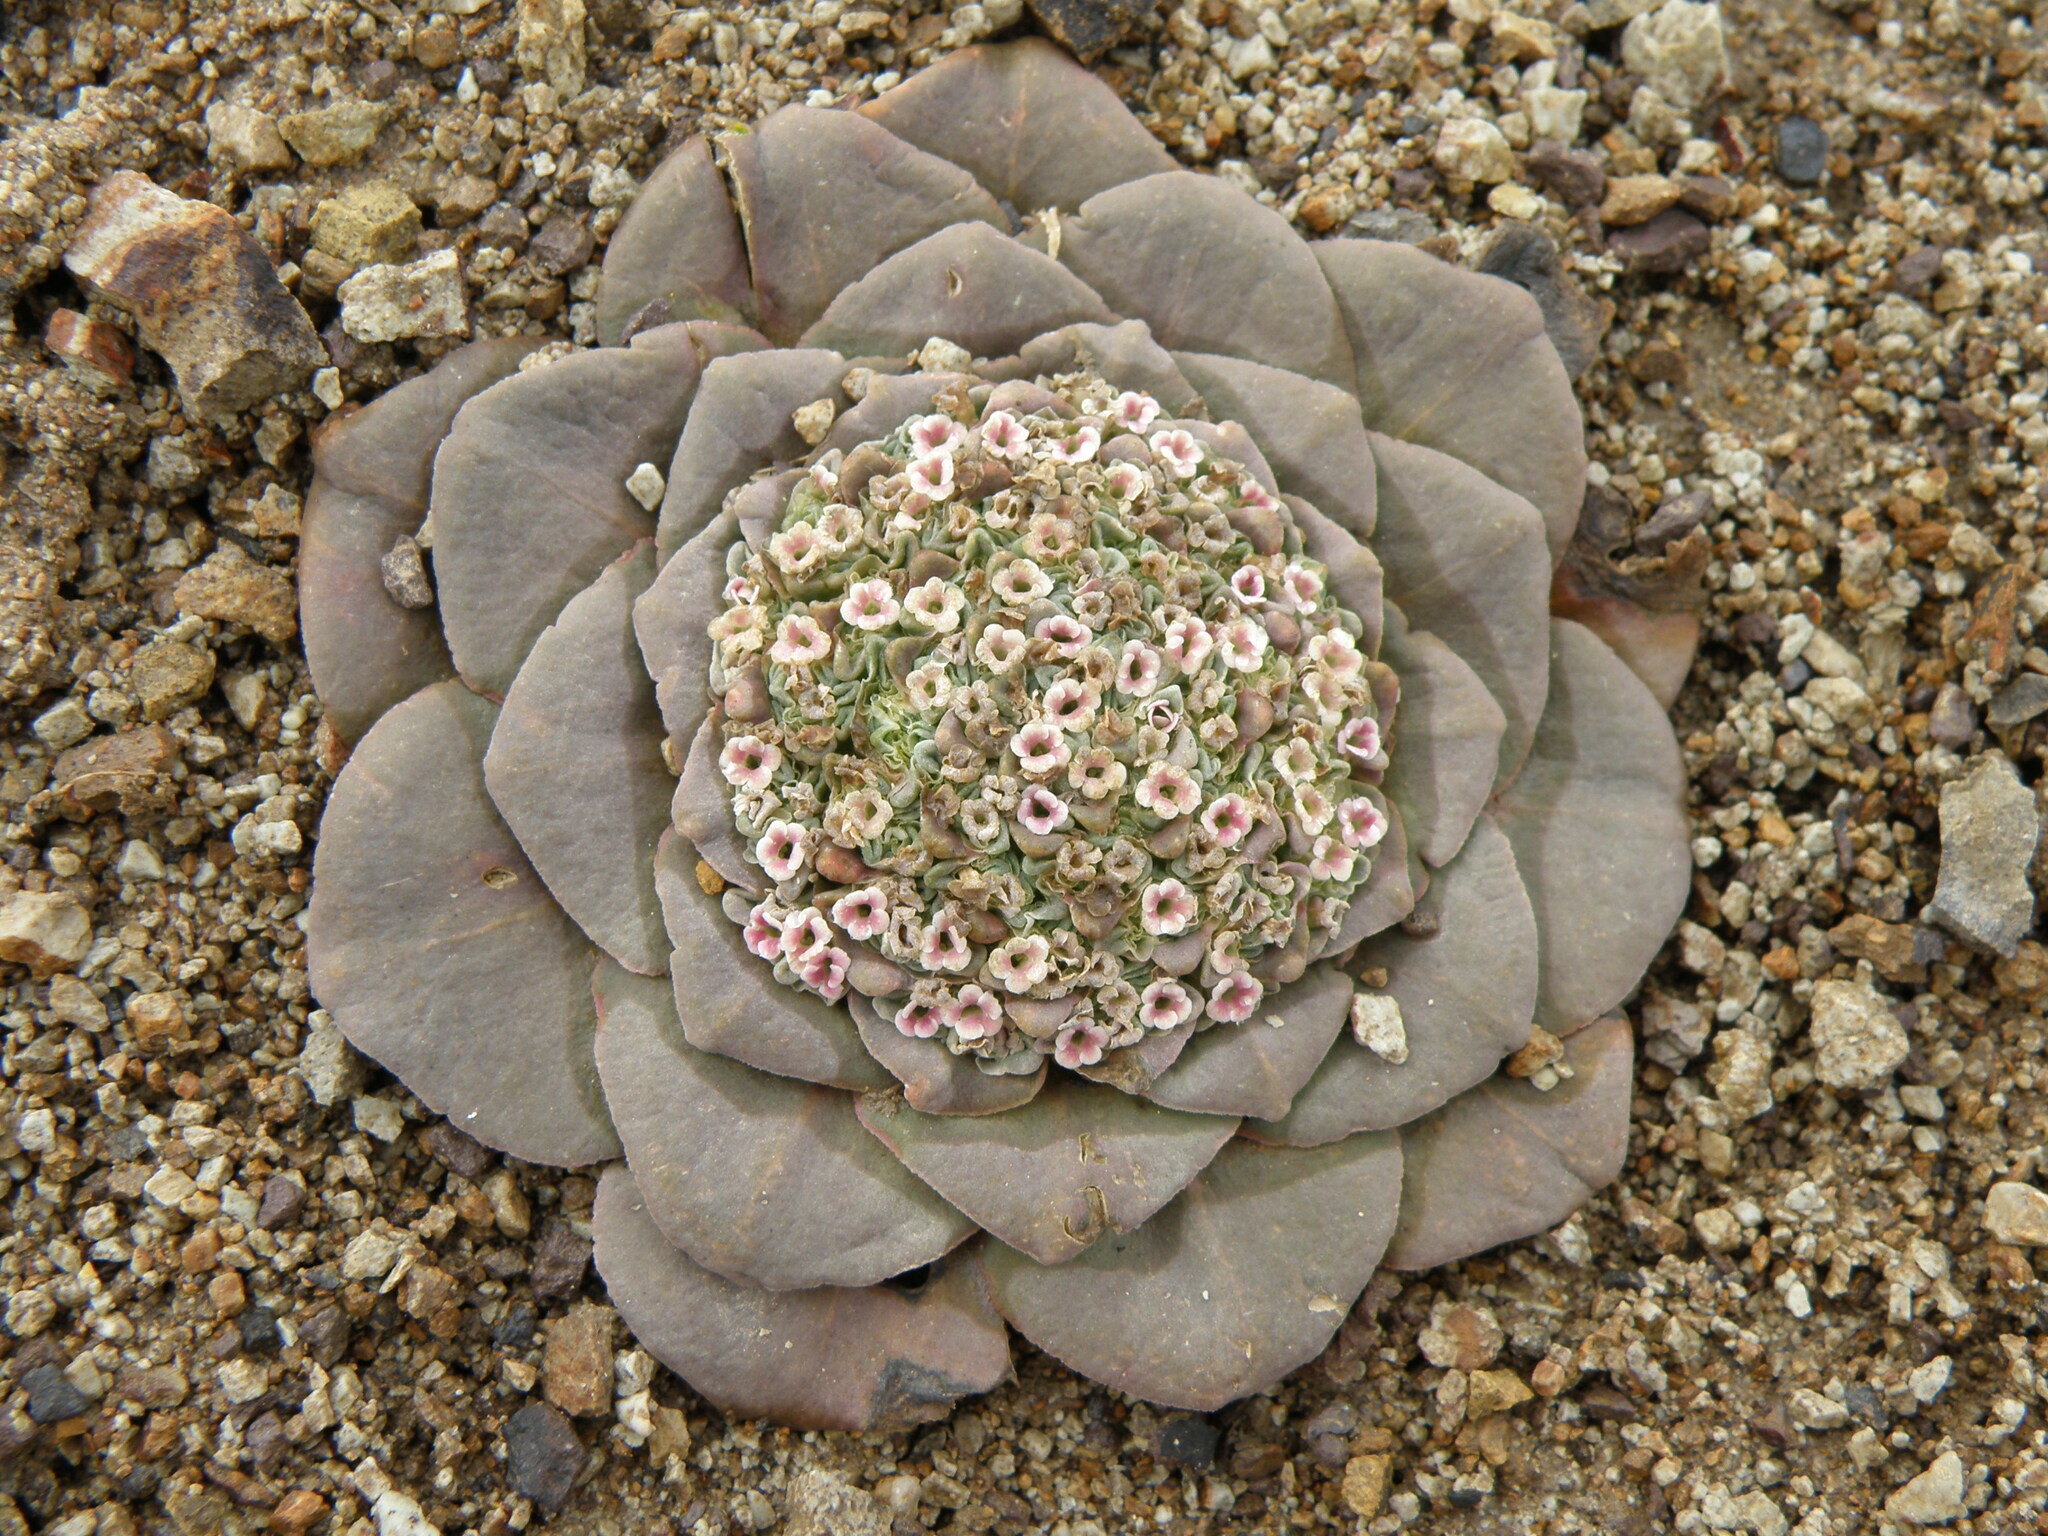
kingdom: Plantae
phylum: Tracheophyta
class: Magnoliopsida
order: Dipsacales
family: Caprifoliaceae
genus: Valeriana
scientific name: Valeriana henrici
